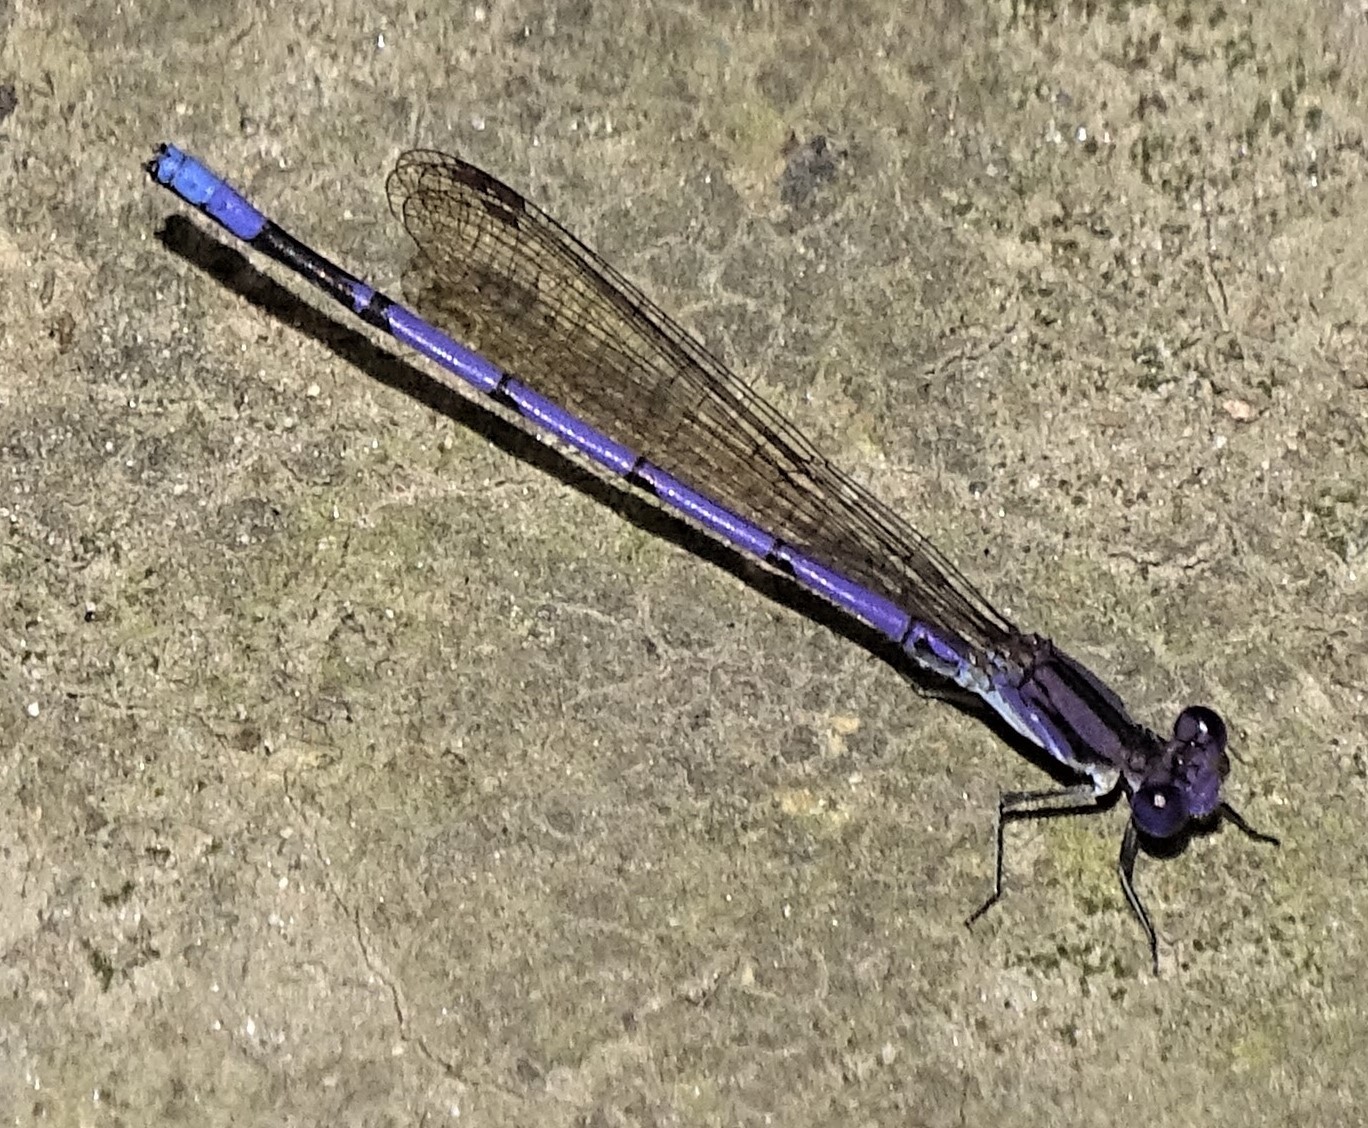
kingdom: Animalia
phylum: Arthropoda
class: Insecta
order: Odonata
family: Coenagrionidae
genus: Argia
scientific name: Argia fumipennis
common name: Variable dancer
